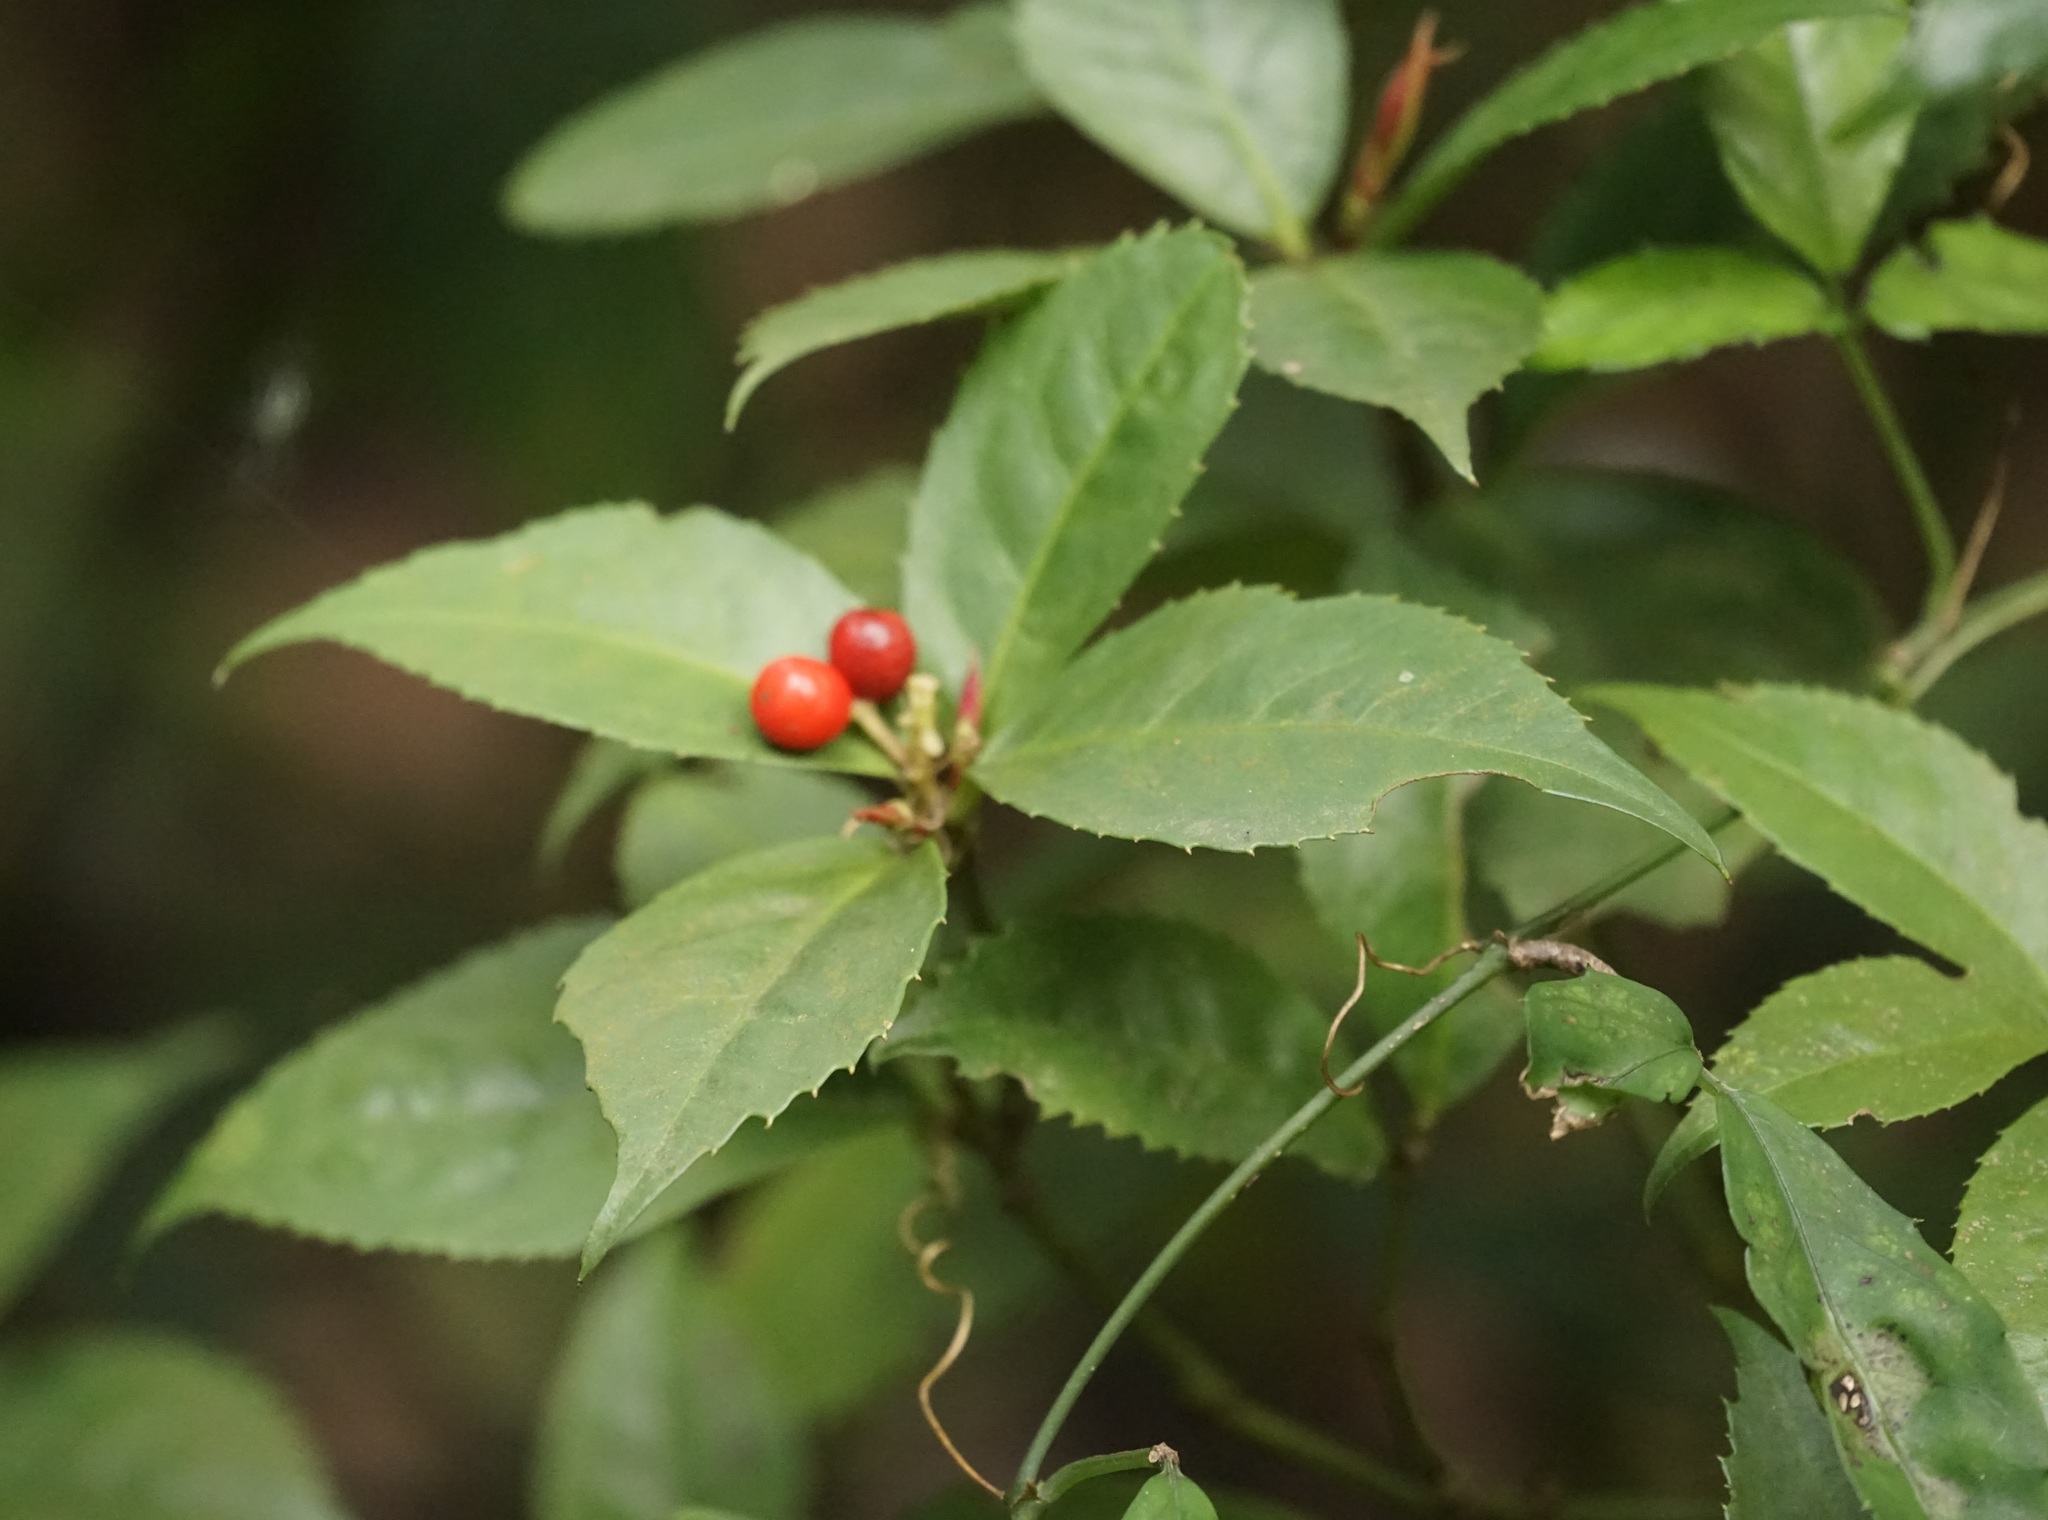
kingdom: Plantae
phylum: Tracheophyta
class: Magnoliopsida
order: Chloranthales
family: Chloranthaceae
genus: Sarcandra
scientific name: Sarcandra glabra
